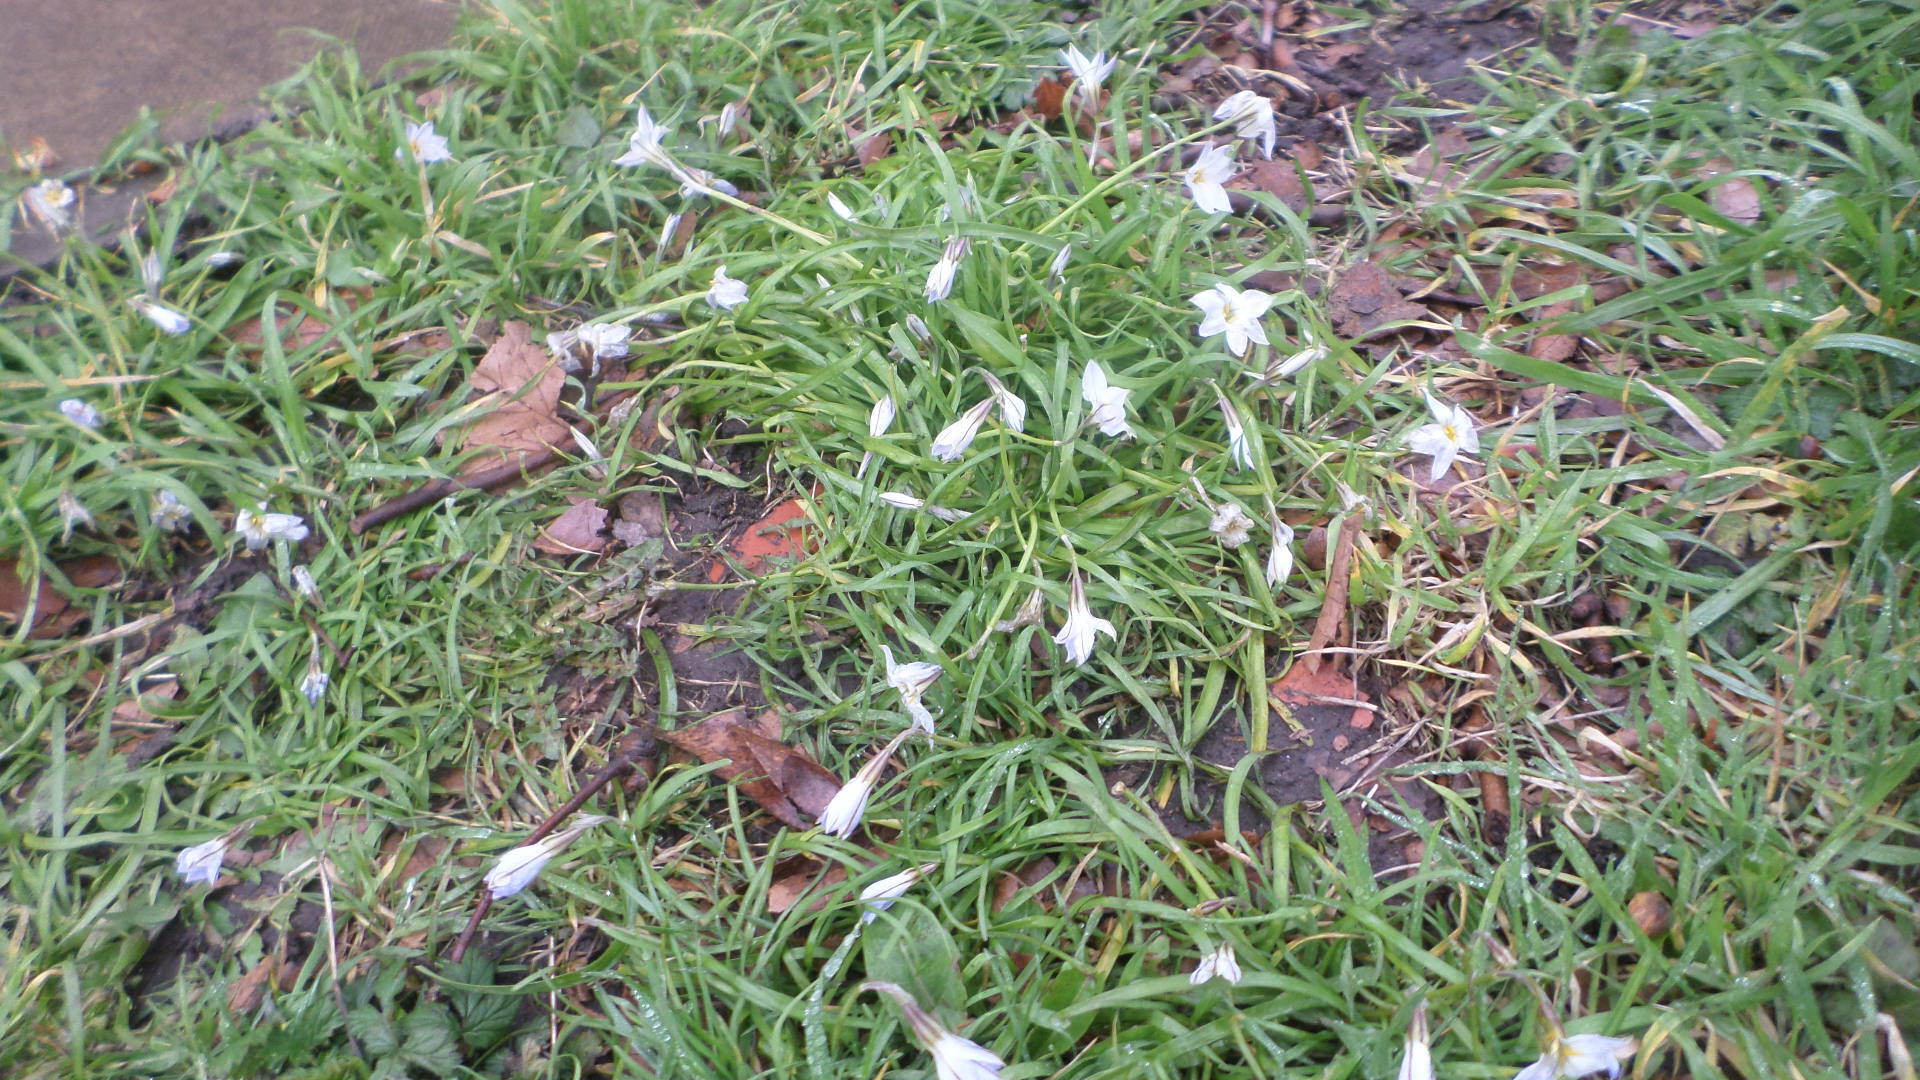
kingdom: Plantae
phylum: Tracheophyta
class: Liliopsida
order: Asparagales
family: Amaryllidaceae
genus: Ipheion
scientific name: Ipheion uniflorum
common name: Spring starflower
